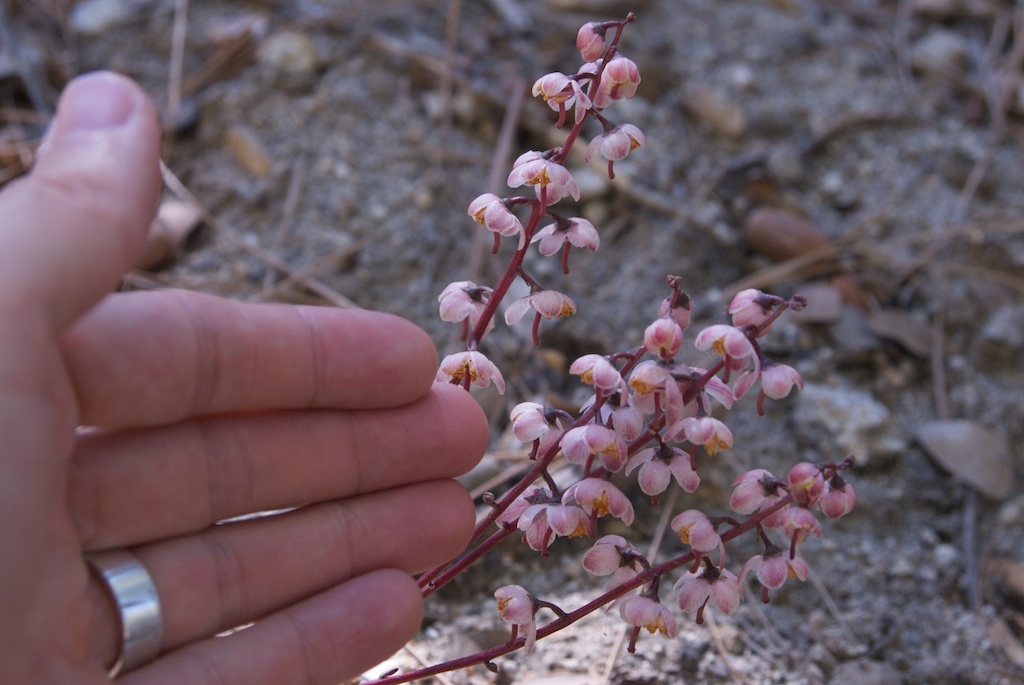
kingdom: Plantae
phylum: Tracheophyta
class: Magnoliopsida
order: Ericales
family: Ericaceae
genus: Pyrola
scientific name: Pyrola aphylla
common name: Leafless wintergreen
